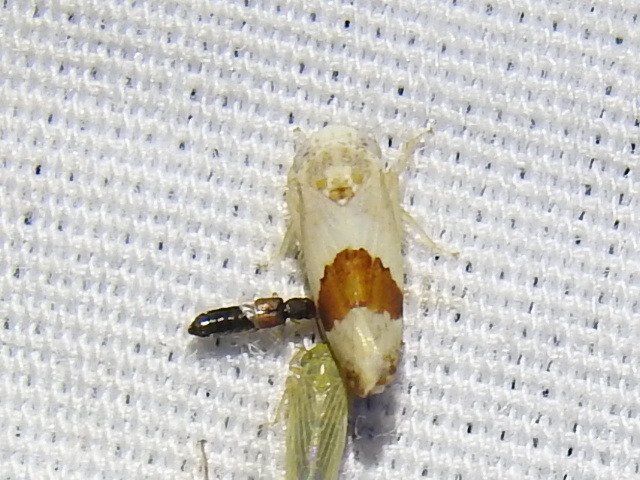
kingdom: Animalia
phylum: Arthropoda
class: Insecta
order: Hemiptera
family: Cicadellidae
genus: Norvellina
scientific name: Norvellina seminuda
